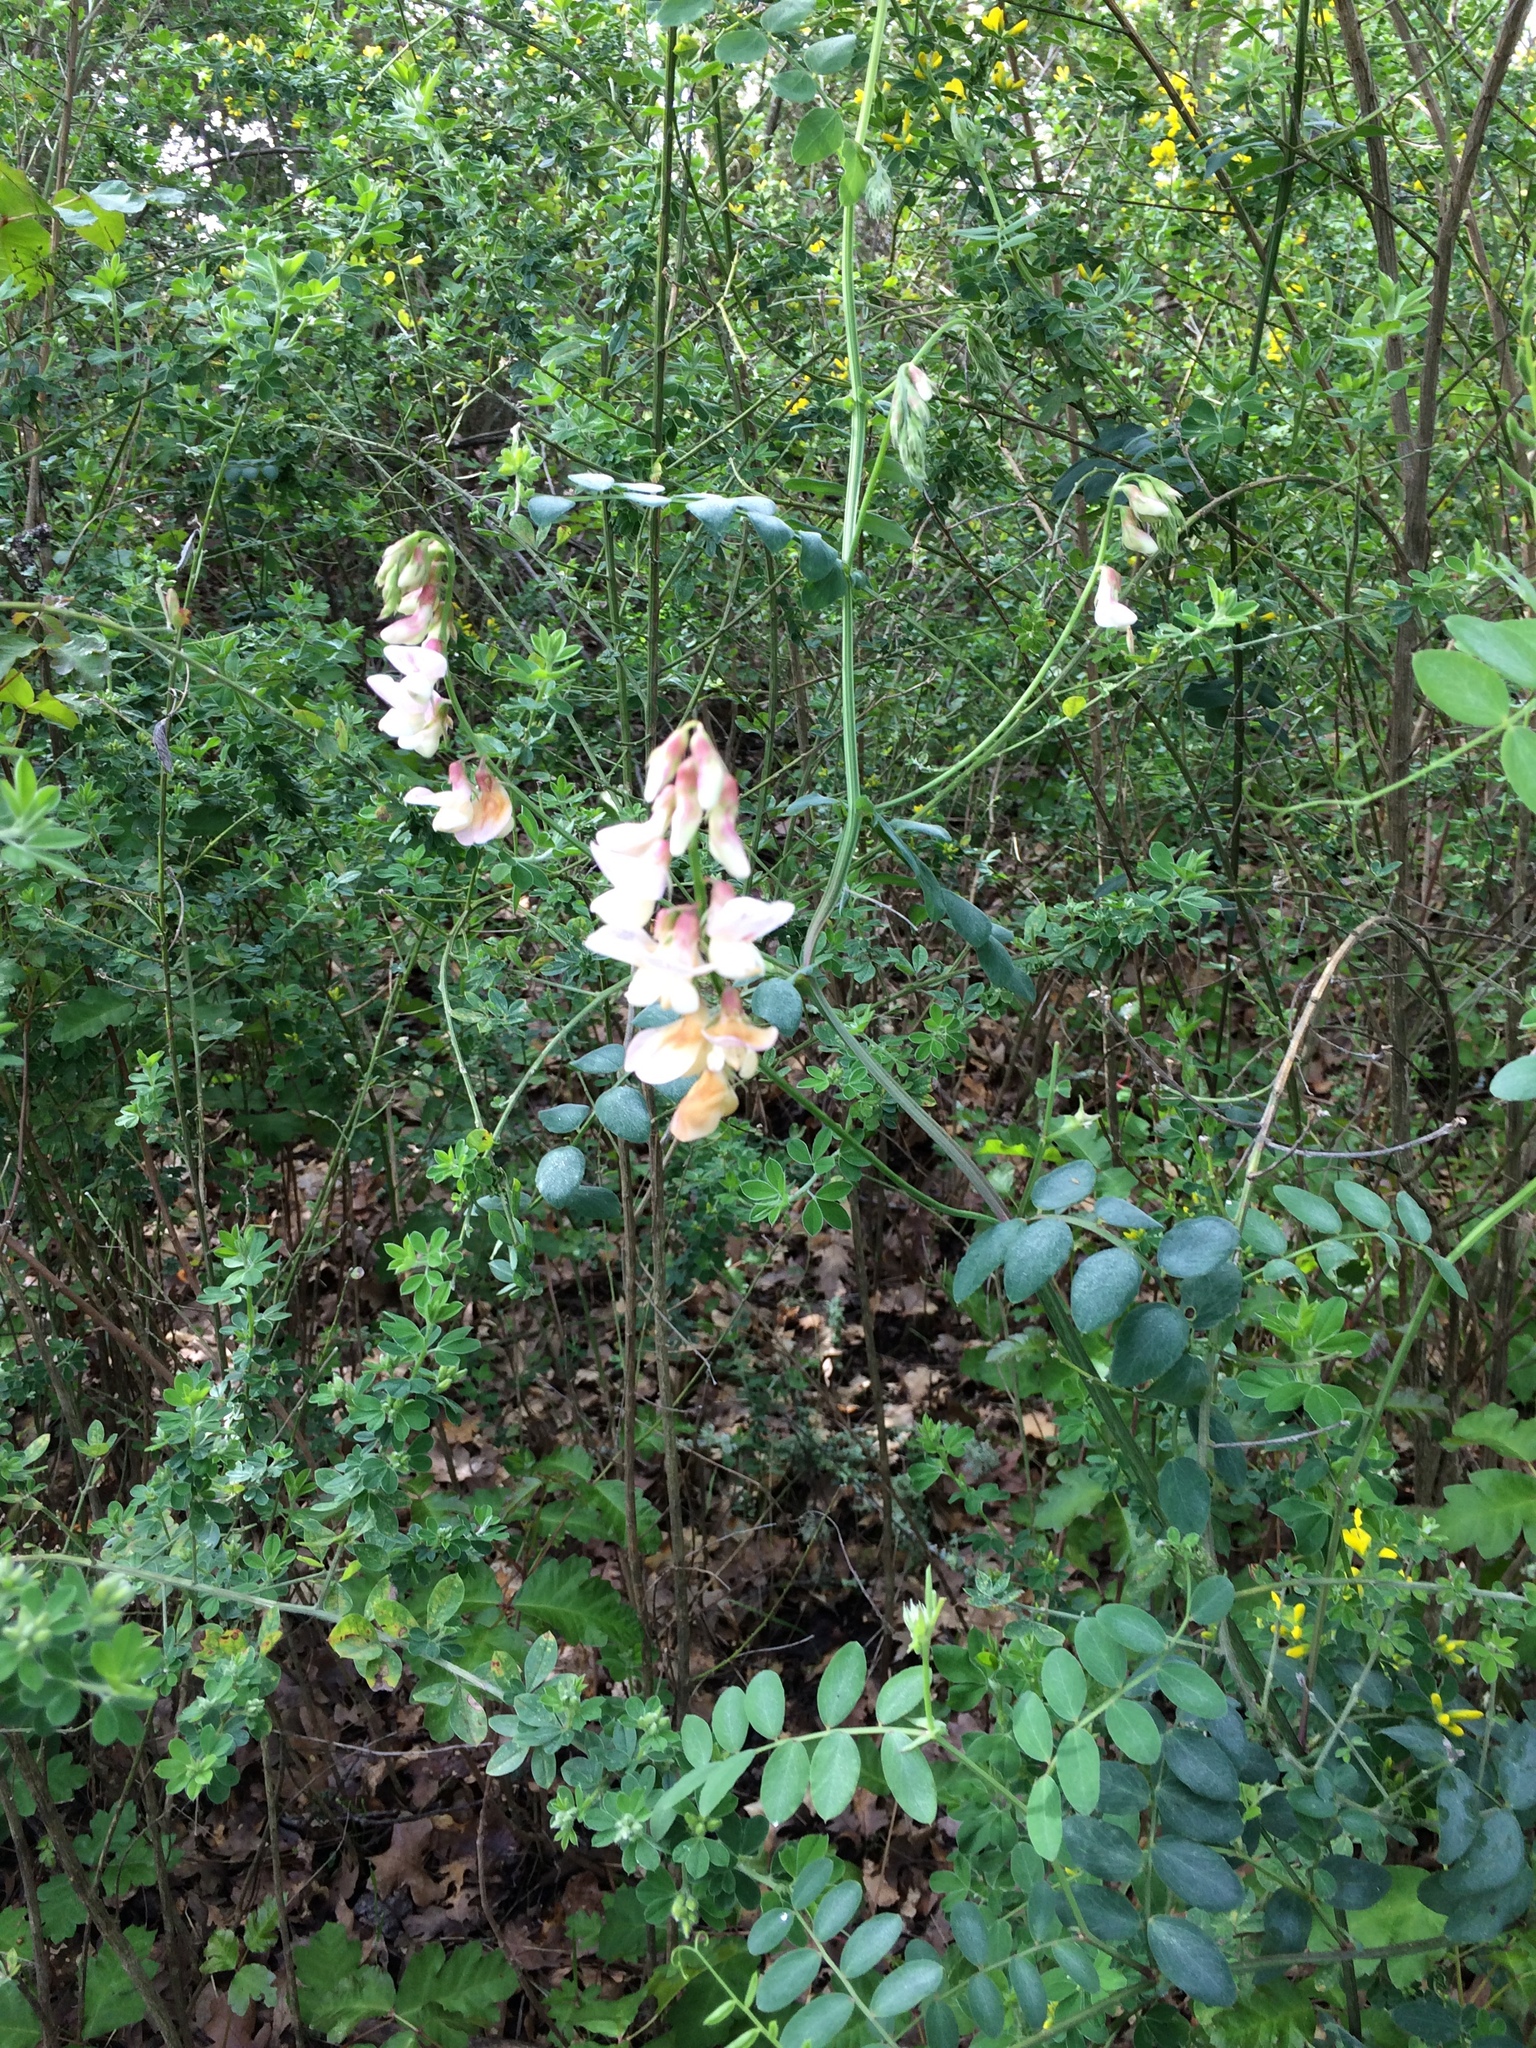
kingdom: Plantae
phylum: Tracheophyta
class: Magnoliopsida
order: Fabales
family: Fabaceae
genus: Lathyrus
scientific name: Lathyrus vestitus
